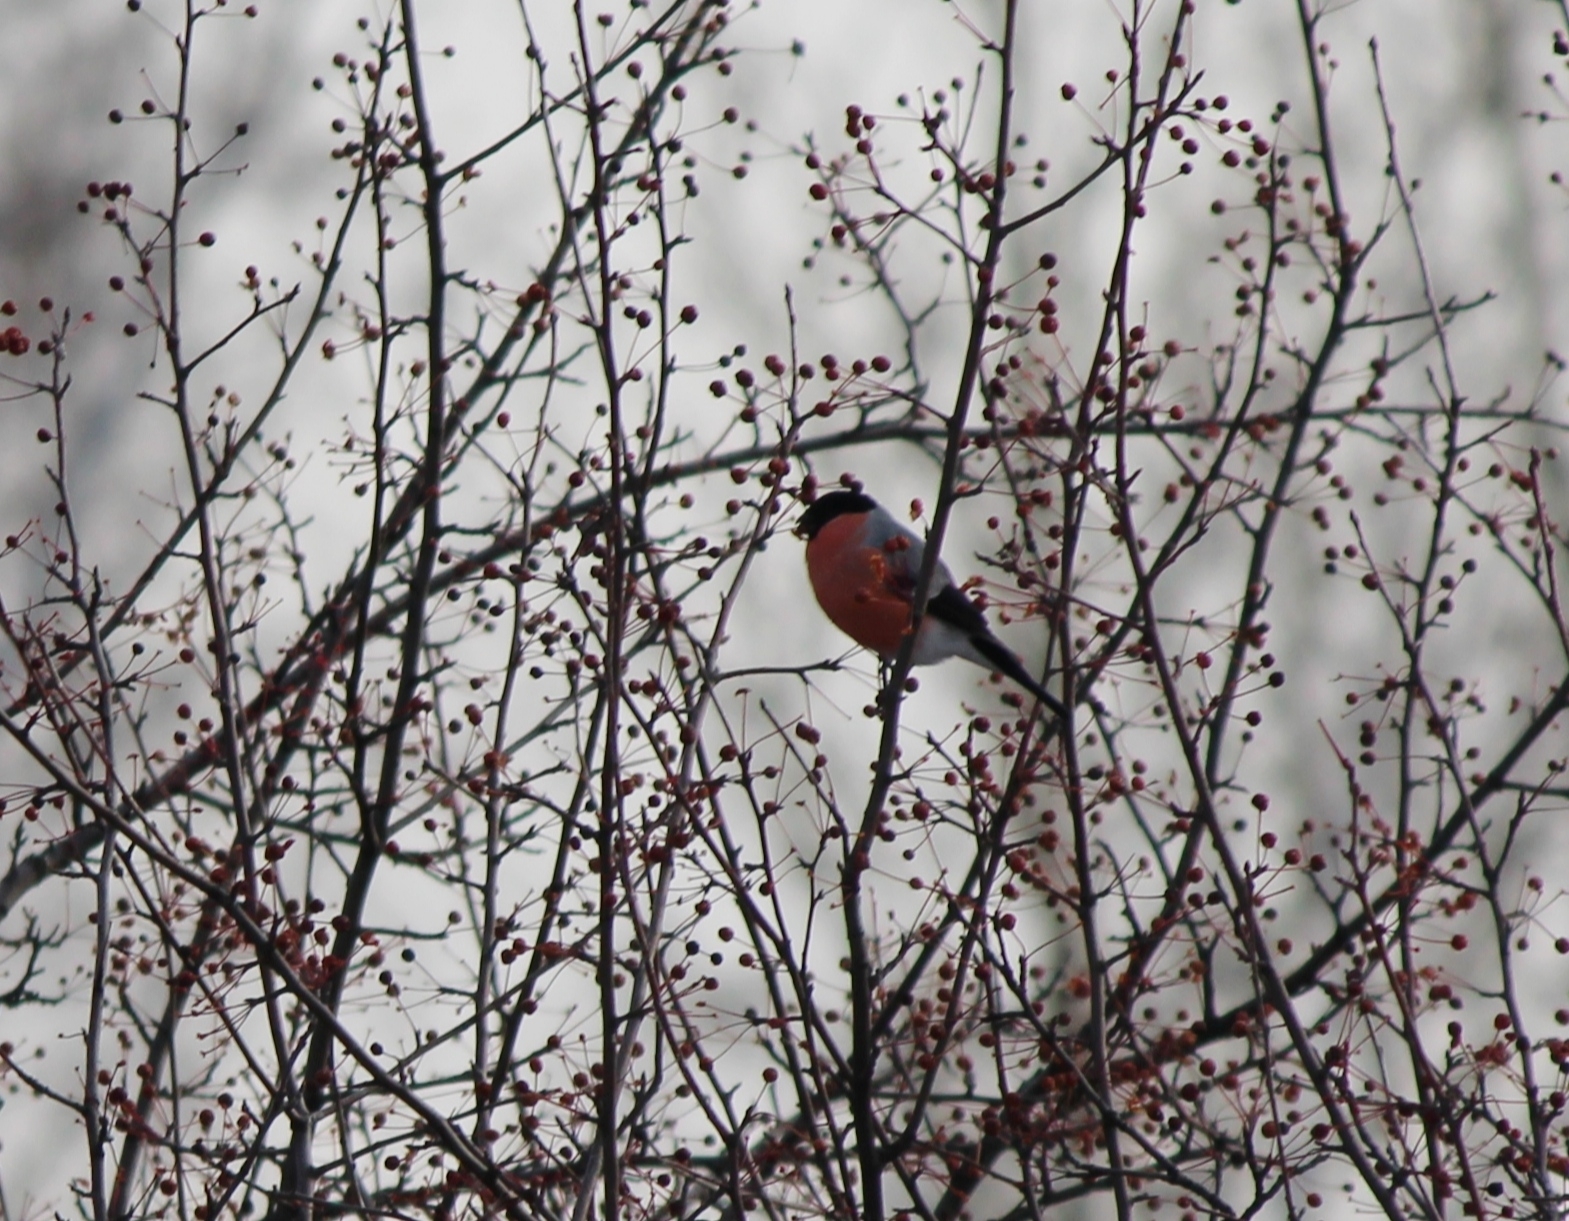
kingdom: Animalia
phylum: Chordata
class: Aves
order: Passeriformes
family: Fringillidae
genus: Pyrrhula
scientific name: Pyrrhula pyrrhula
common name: Eurasian bullfinch
